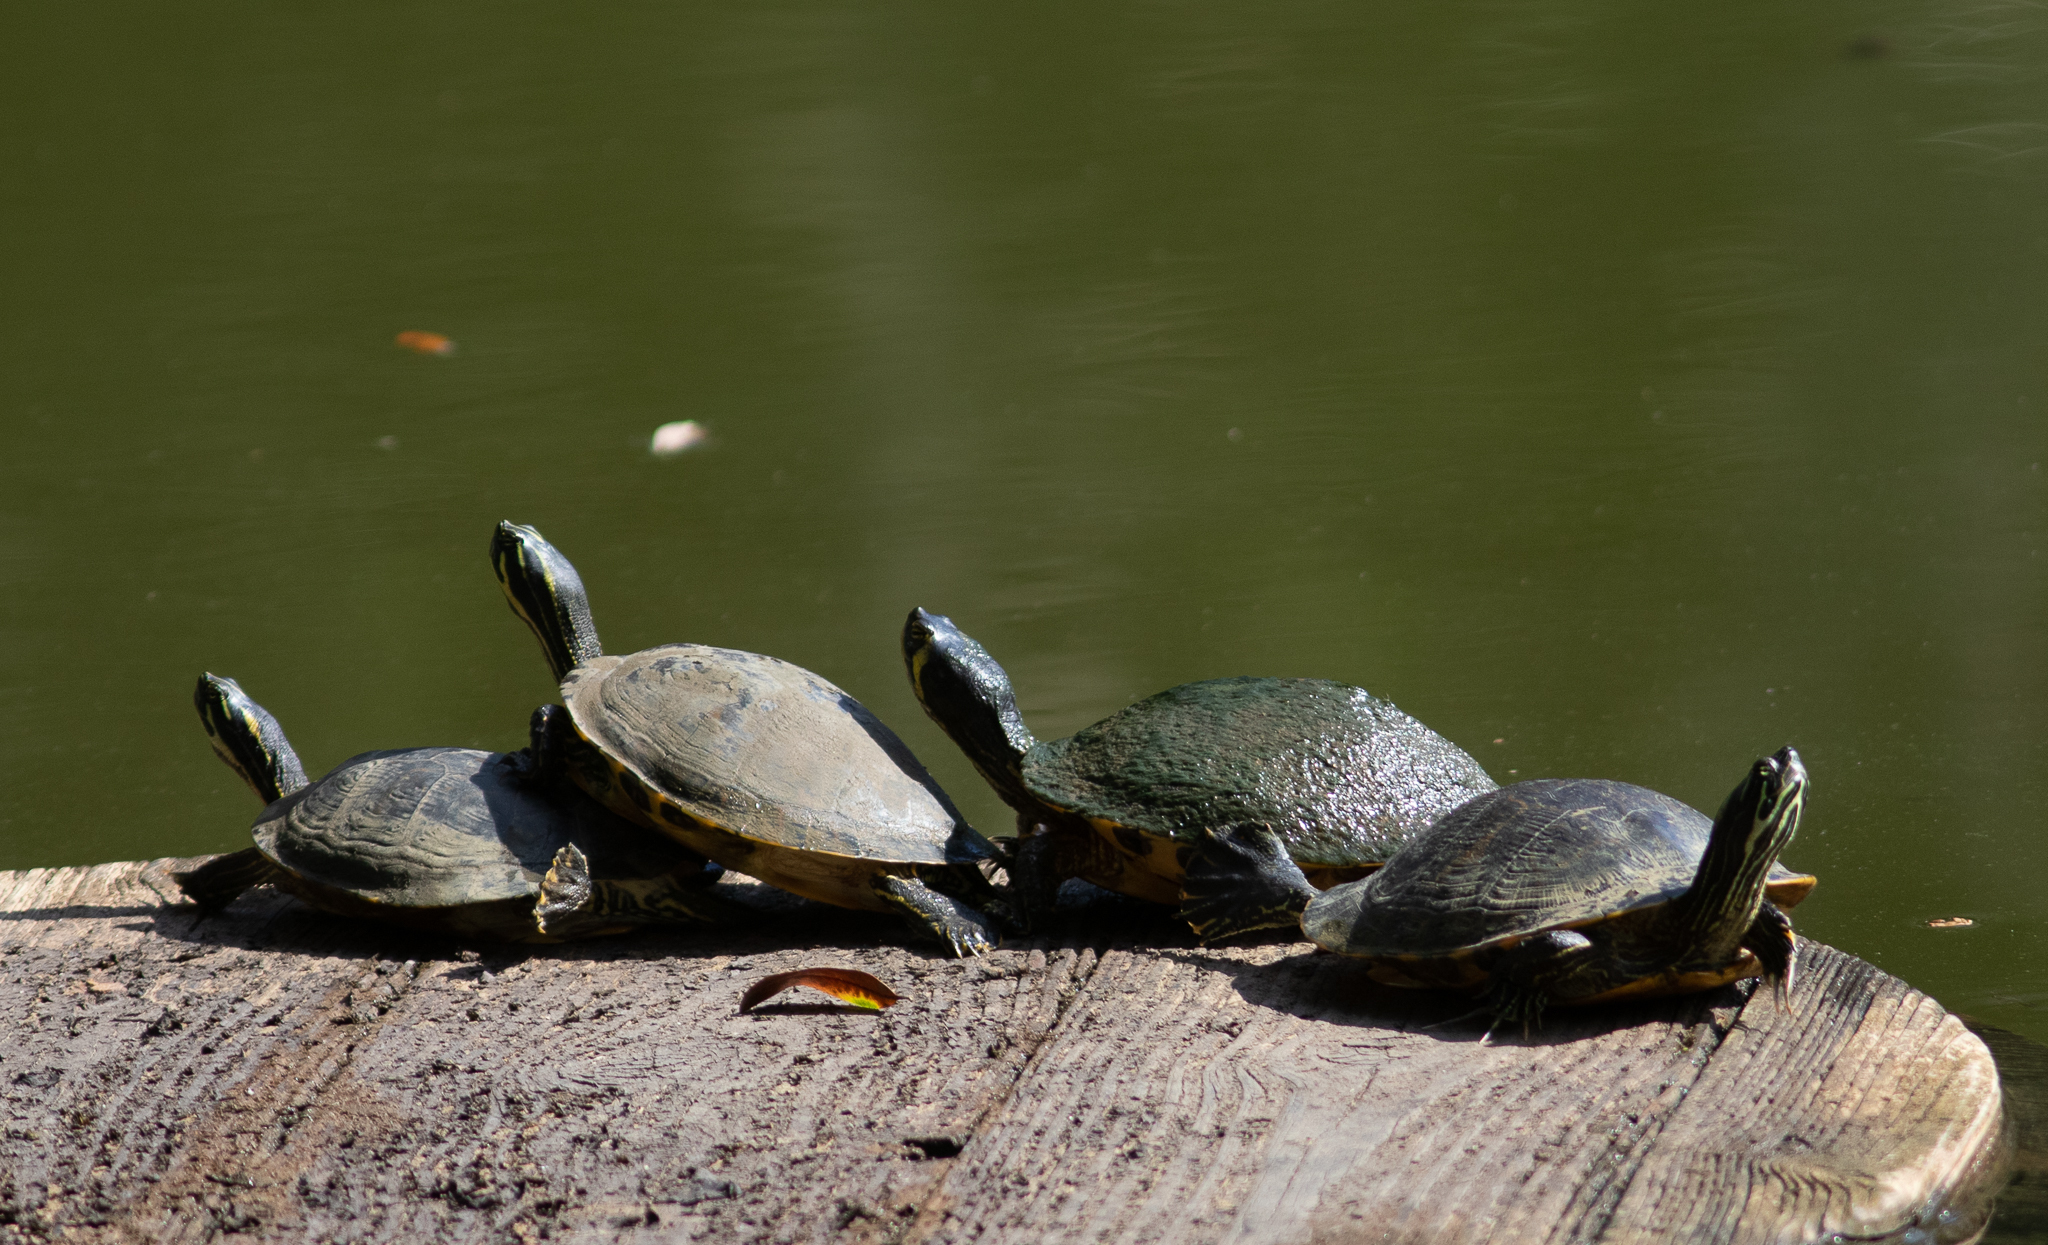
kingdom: Animalia
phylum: Chordata
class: Testudines
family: Emydidae
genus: Pseudemys
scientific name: Pseudemys
